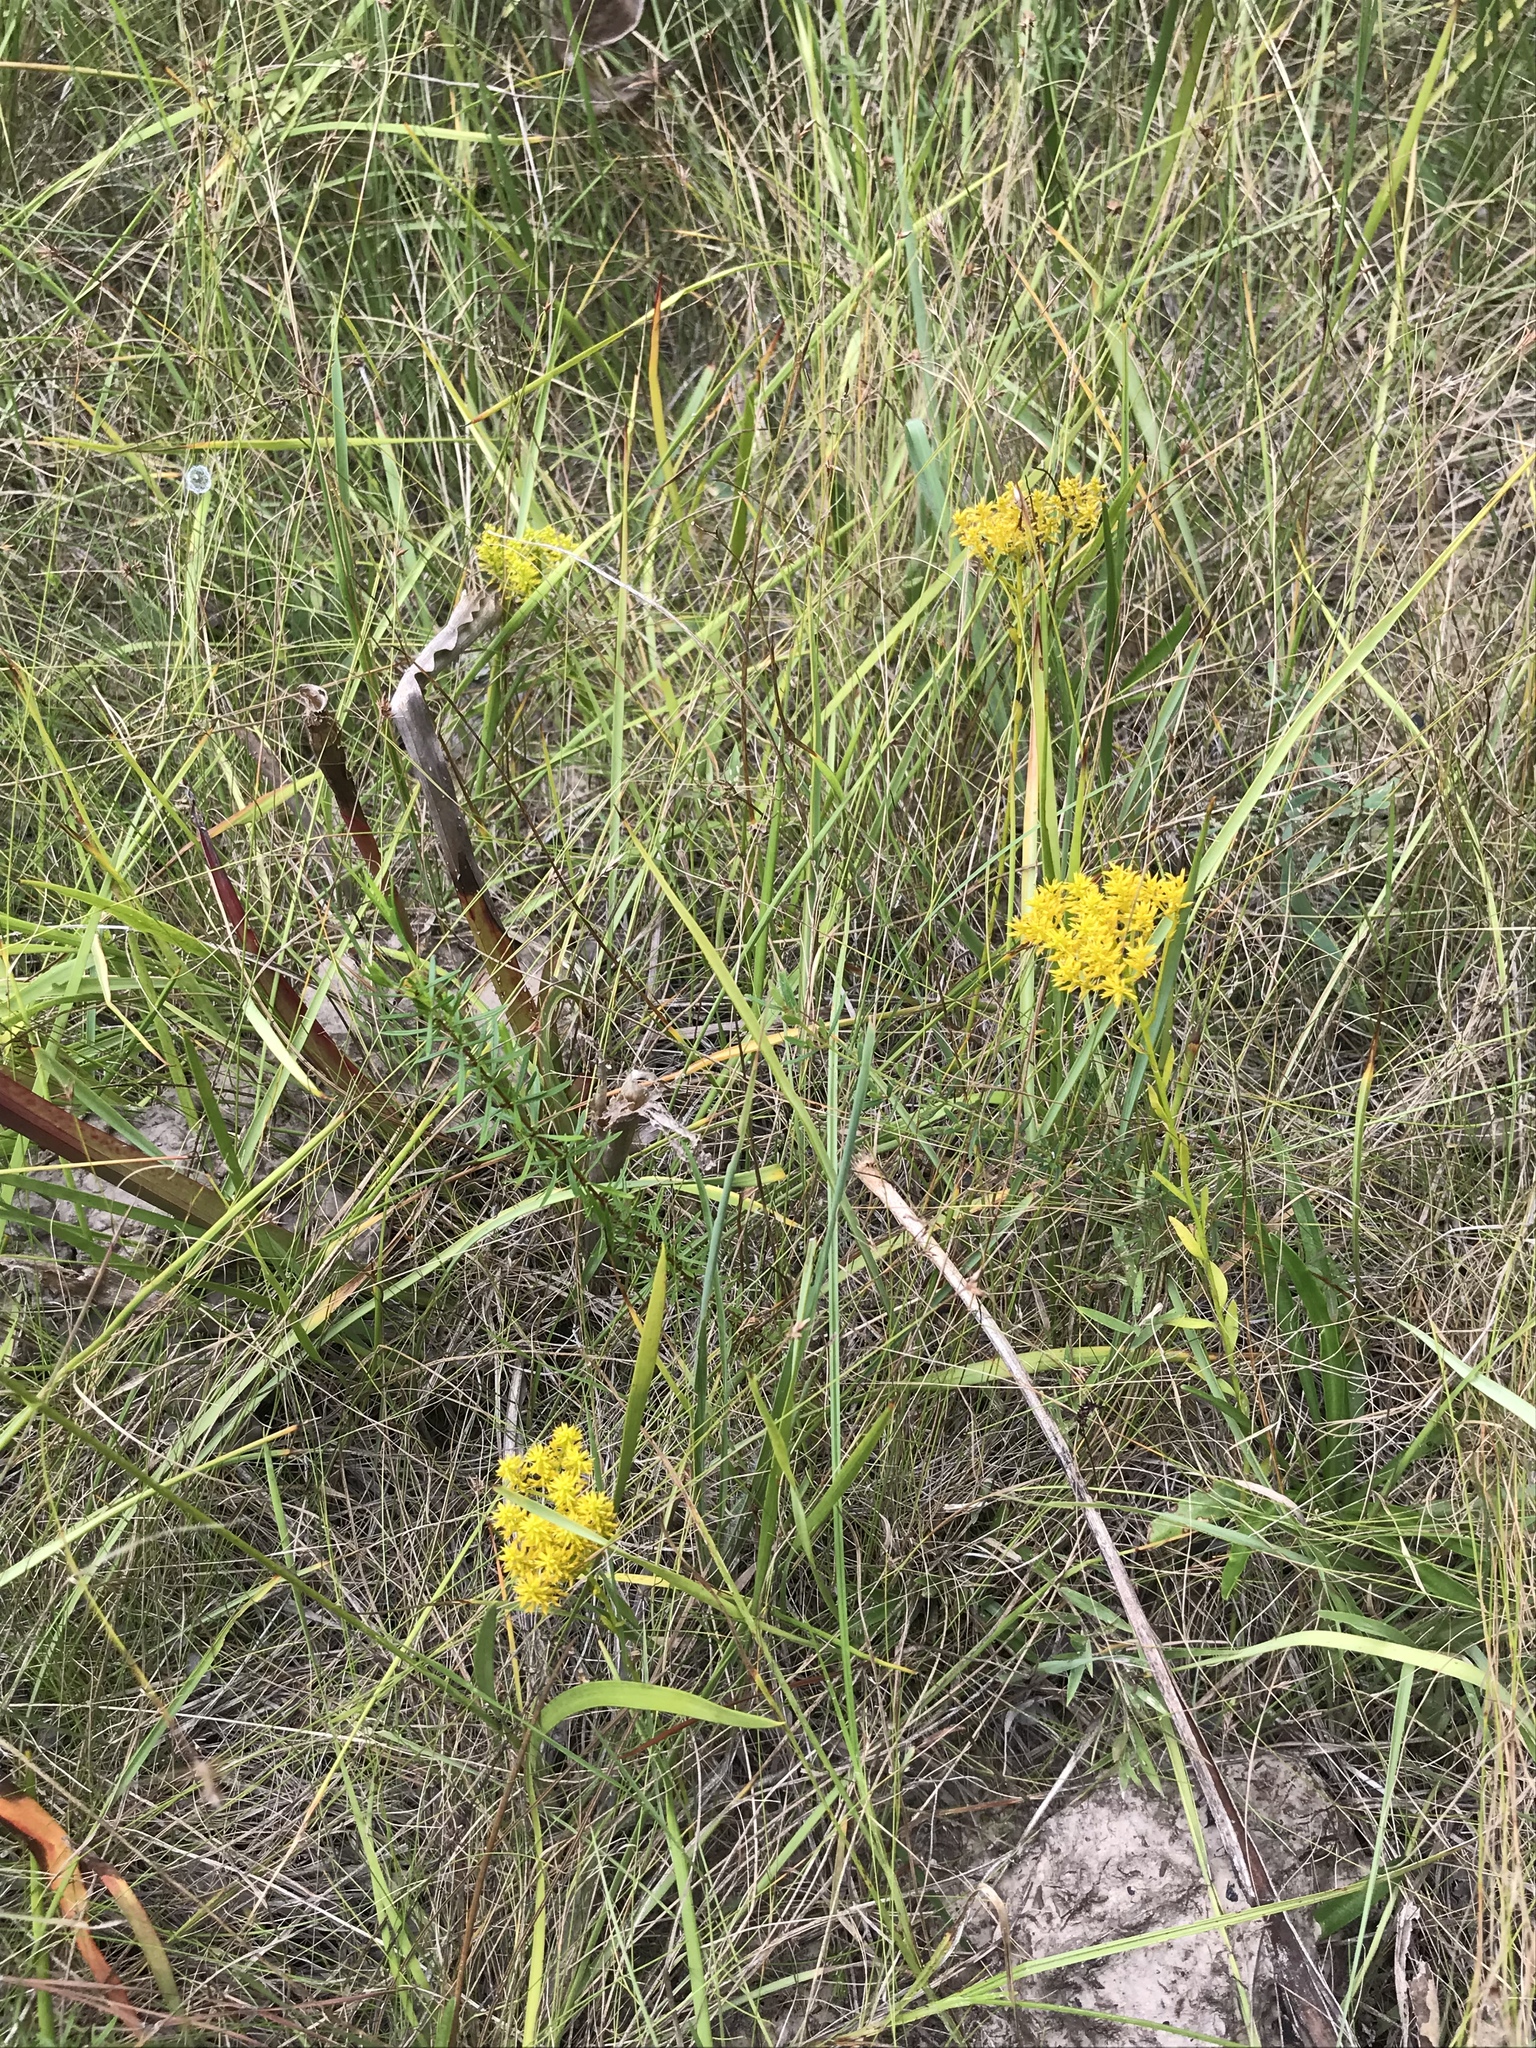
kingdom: Plantae
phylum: Tracheophyta
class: Magnoliopsida
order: Fabales
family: Polygalaceae
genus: Polygala
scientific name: Polygala ramosa
